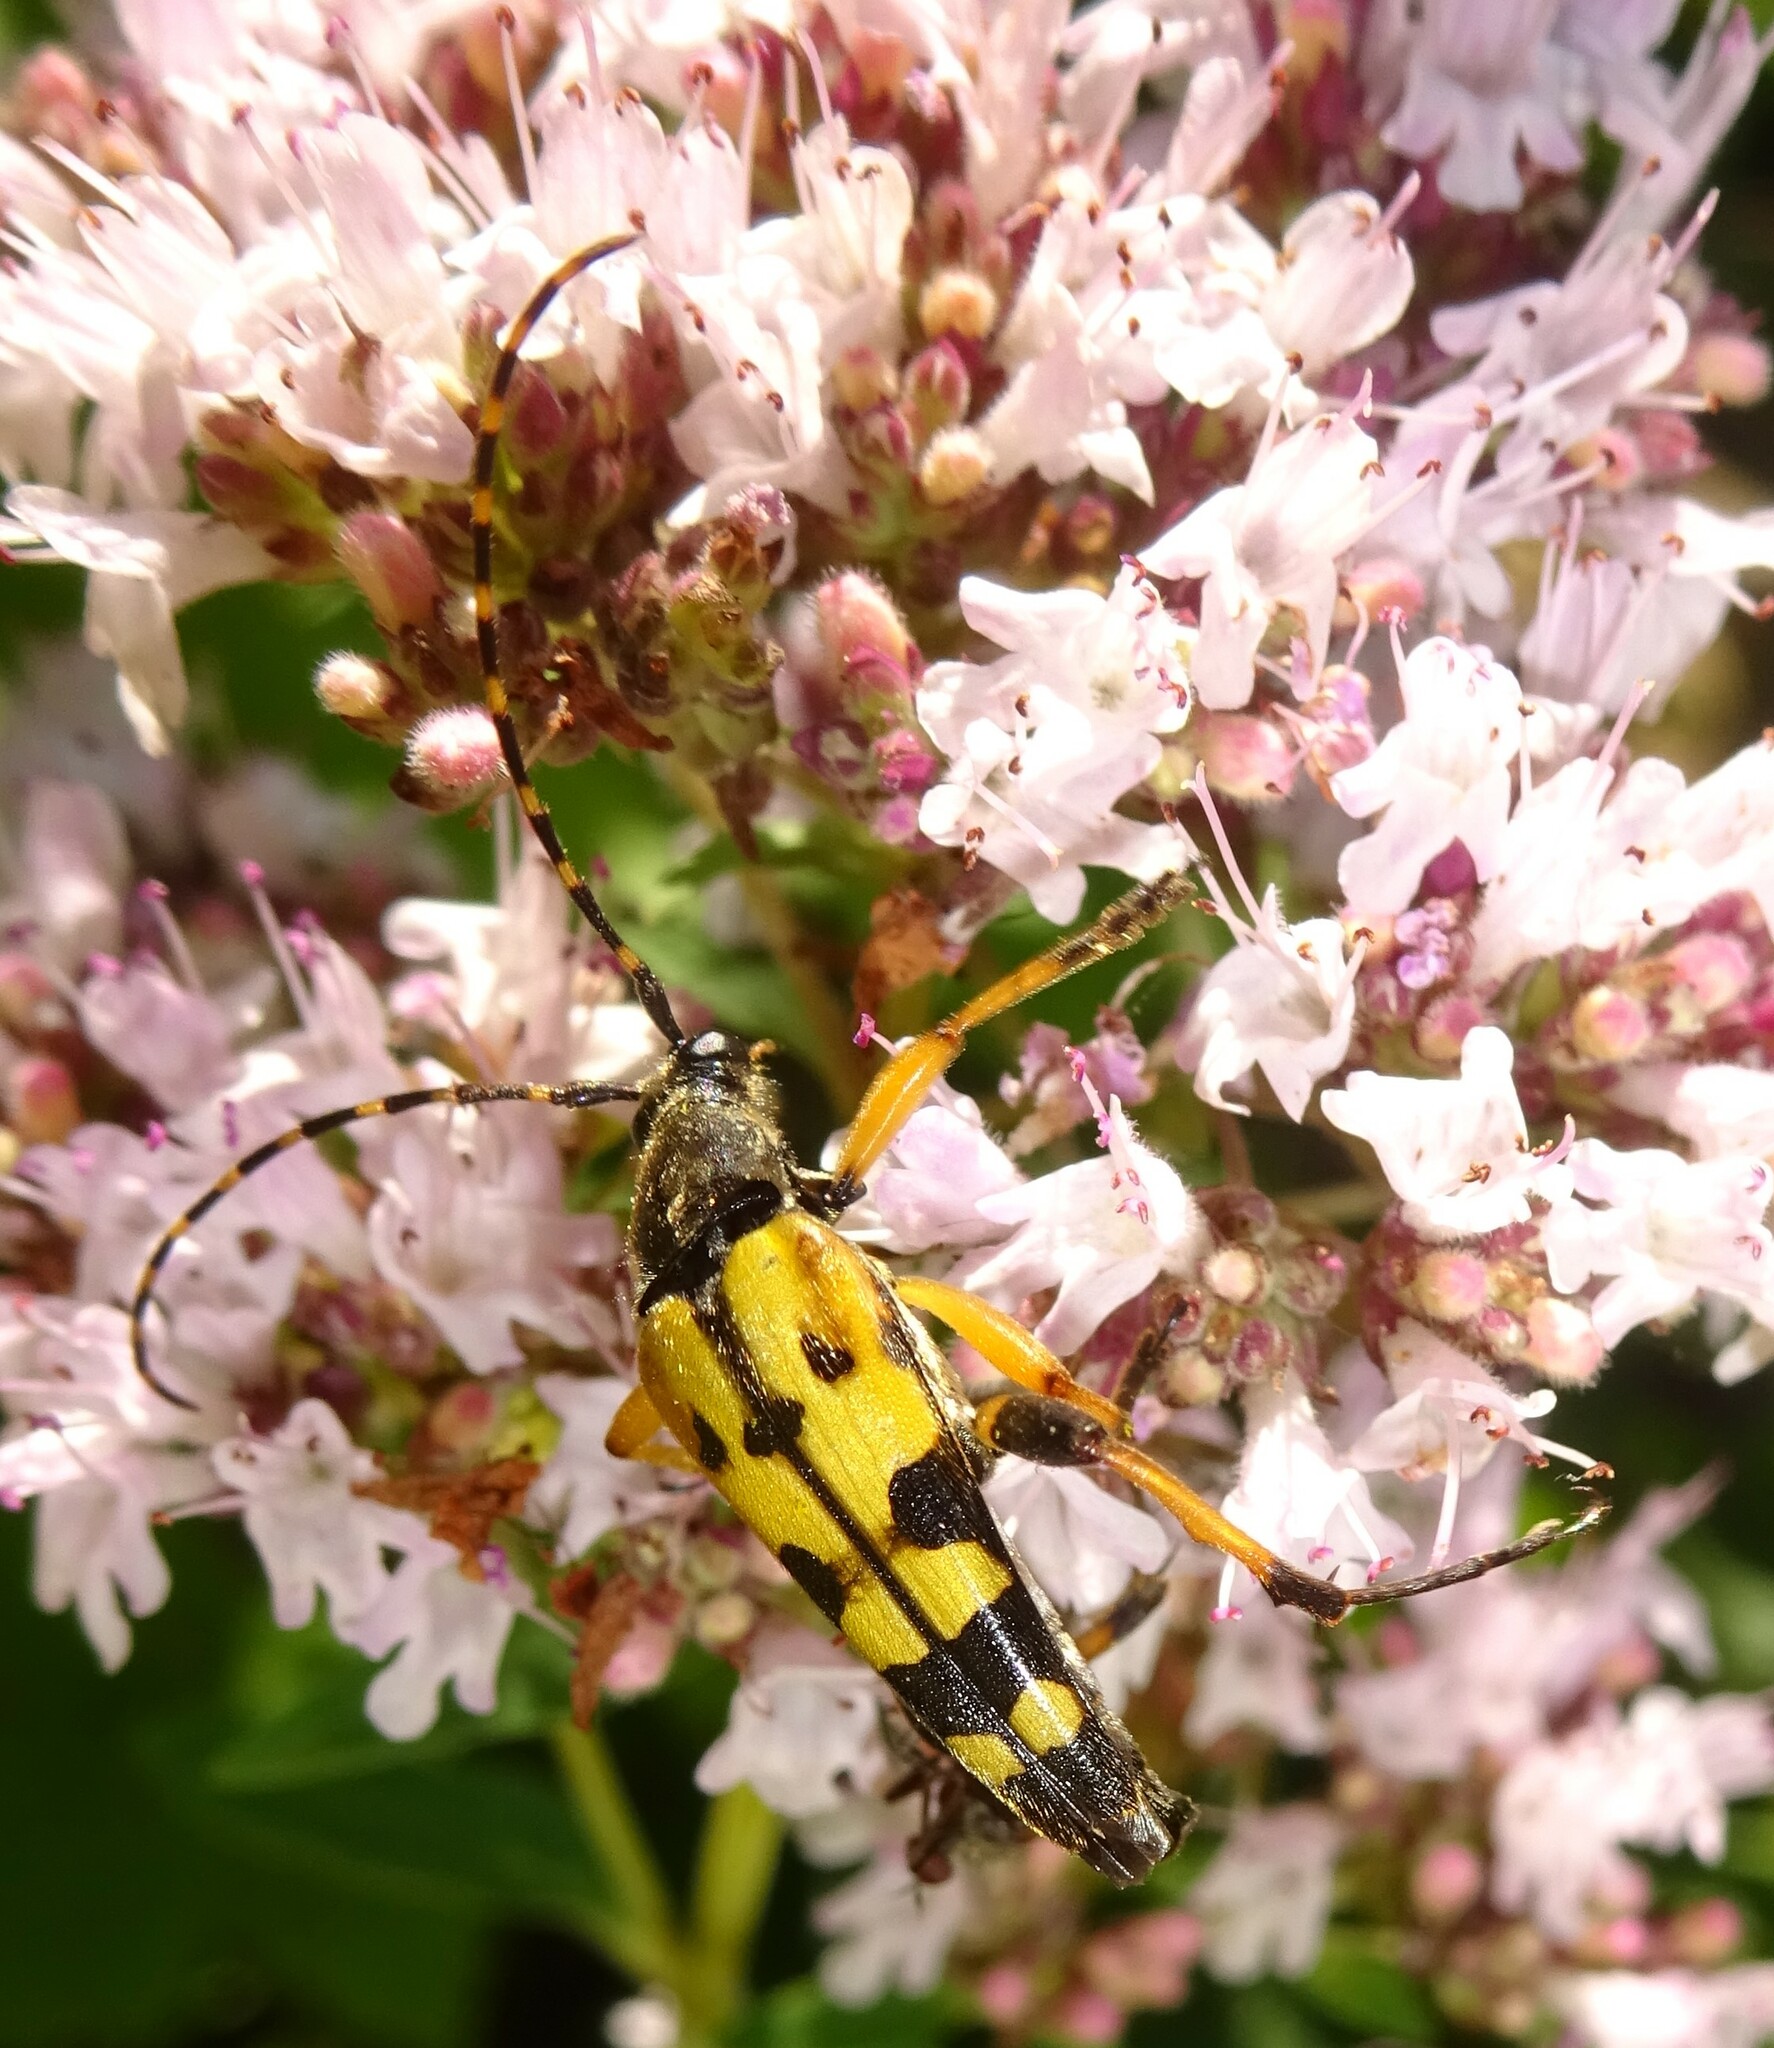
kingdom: Animalia
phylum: Arthropoda
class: Insecta
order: Coleoptera
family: Cerambycidae
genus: Rutpela
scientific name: Rutpela maculata
